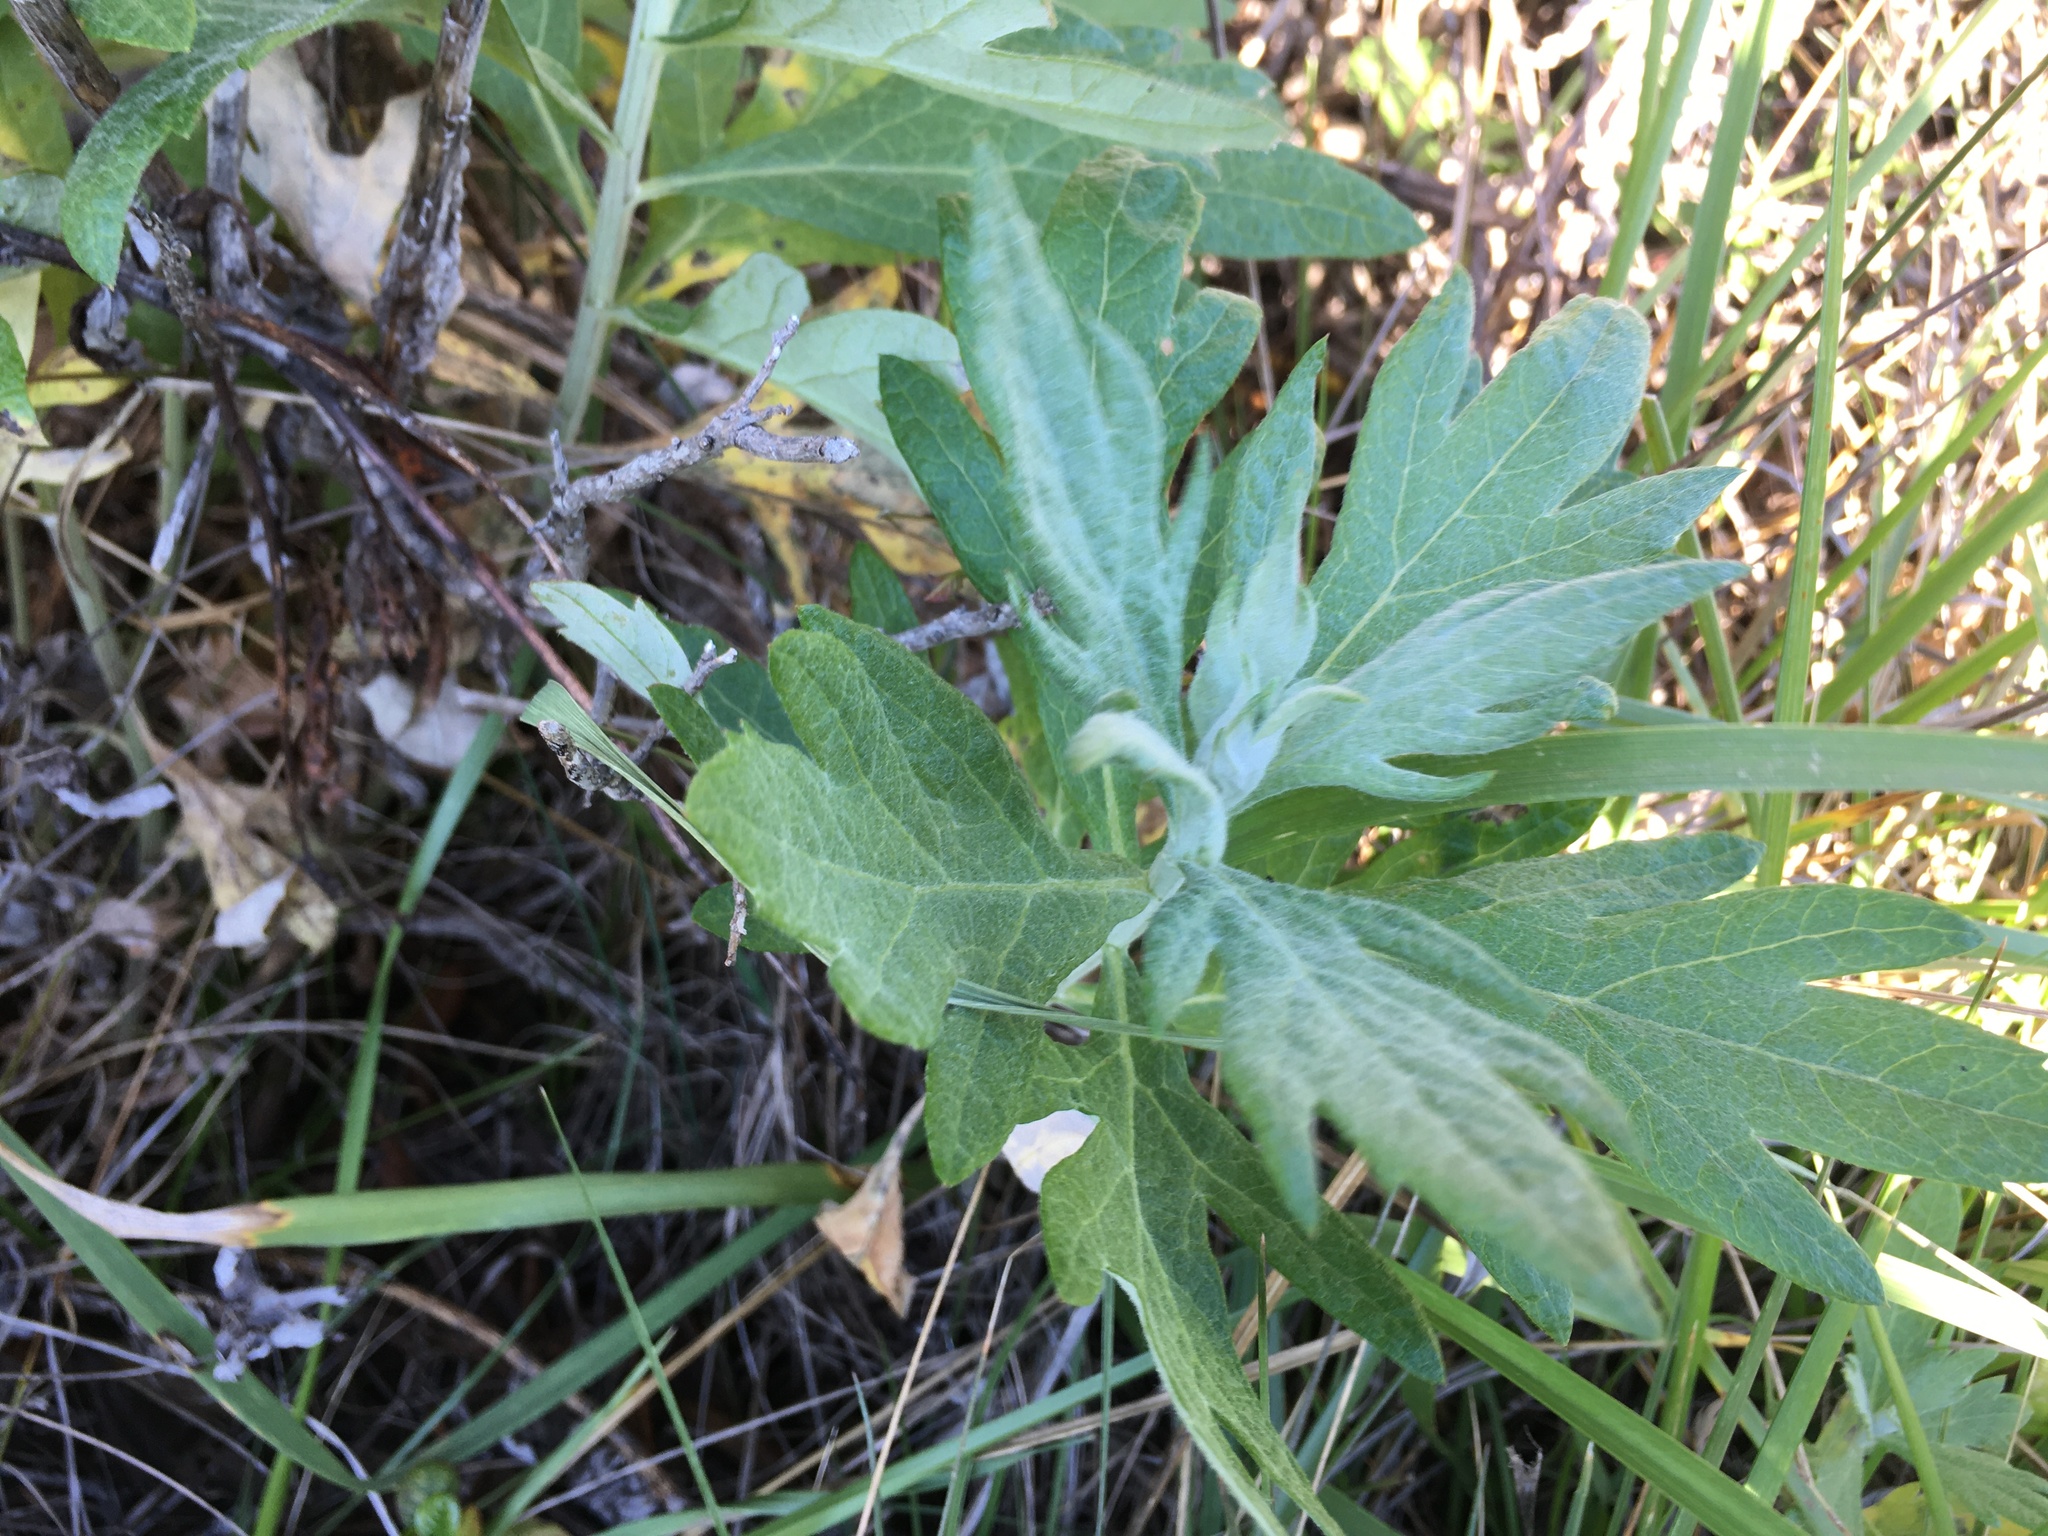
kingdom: Plantae
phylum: Tracheophyta
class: Magnoliopsida
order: Asterales
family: Asteraceae
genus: Artemisia
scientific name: Artemisia douglasiana
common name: Northwest mugwort
